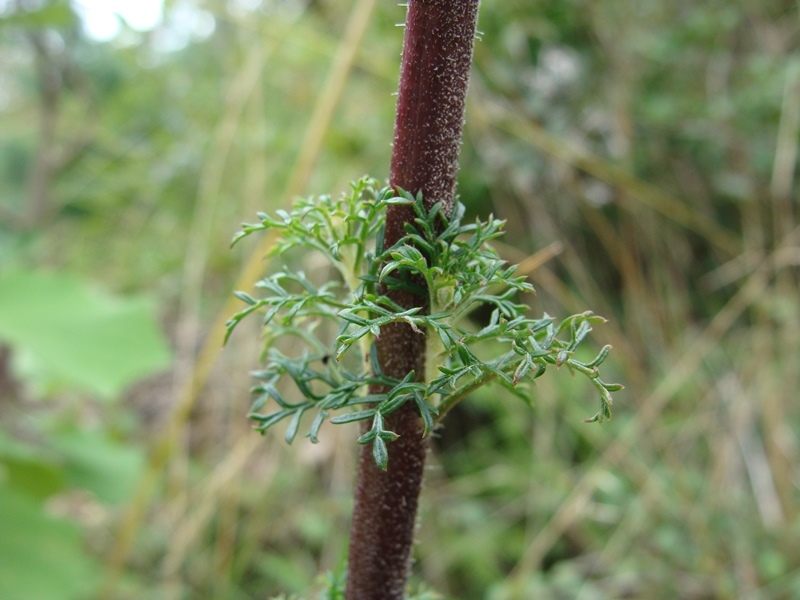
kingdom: Plantae
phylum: Tracheophyta
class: Magnoliopsida
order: Lamiales
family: Orobanchaceae
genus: Lamourouxia
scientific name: Lamourouxia multifida
